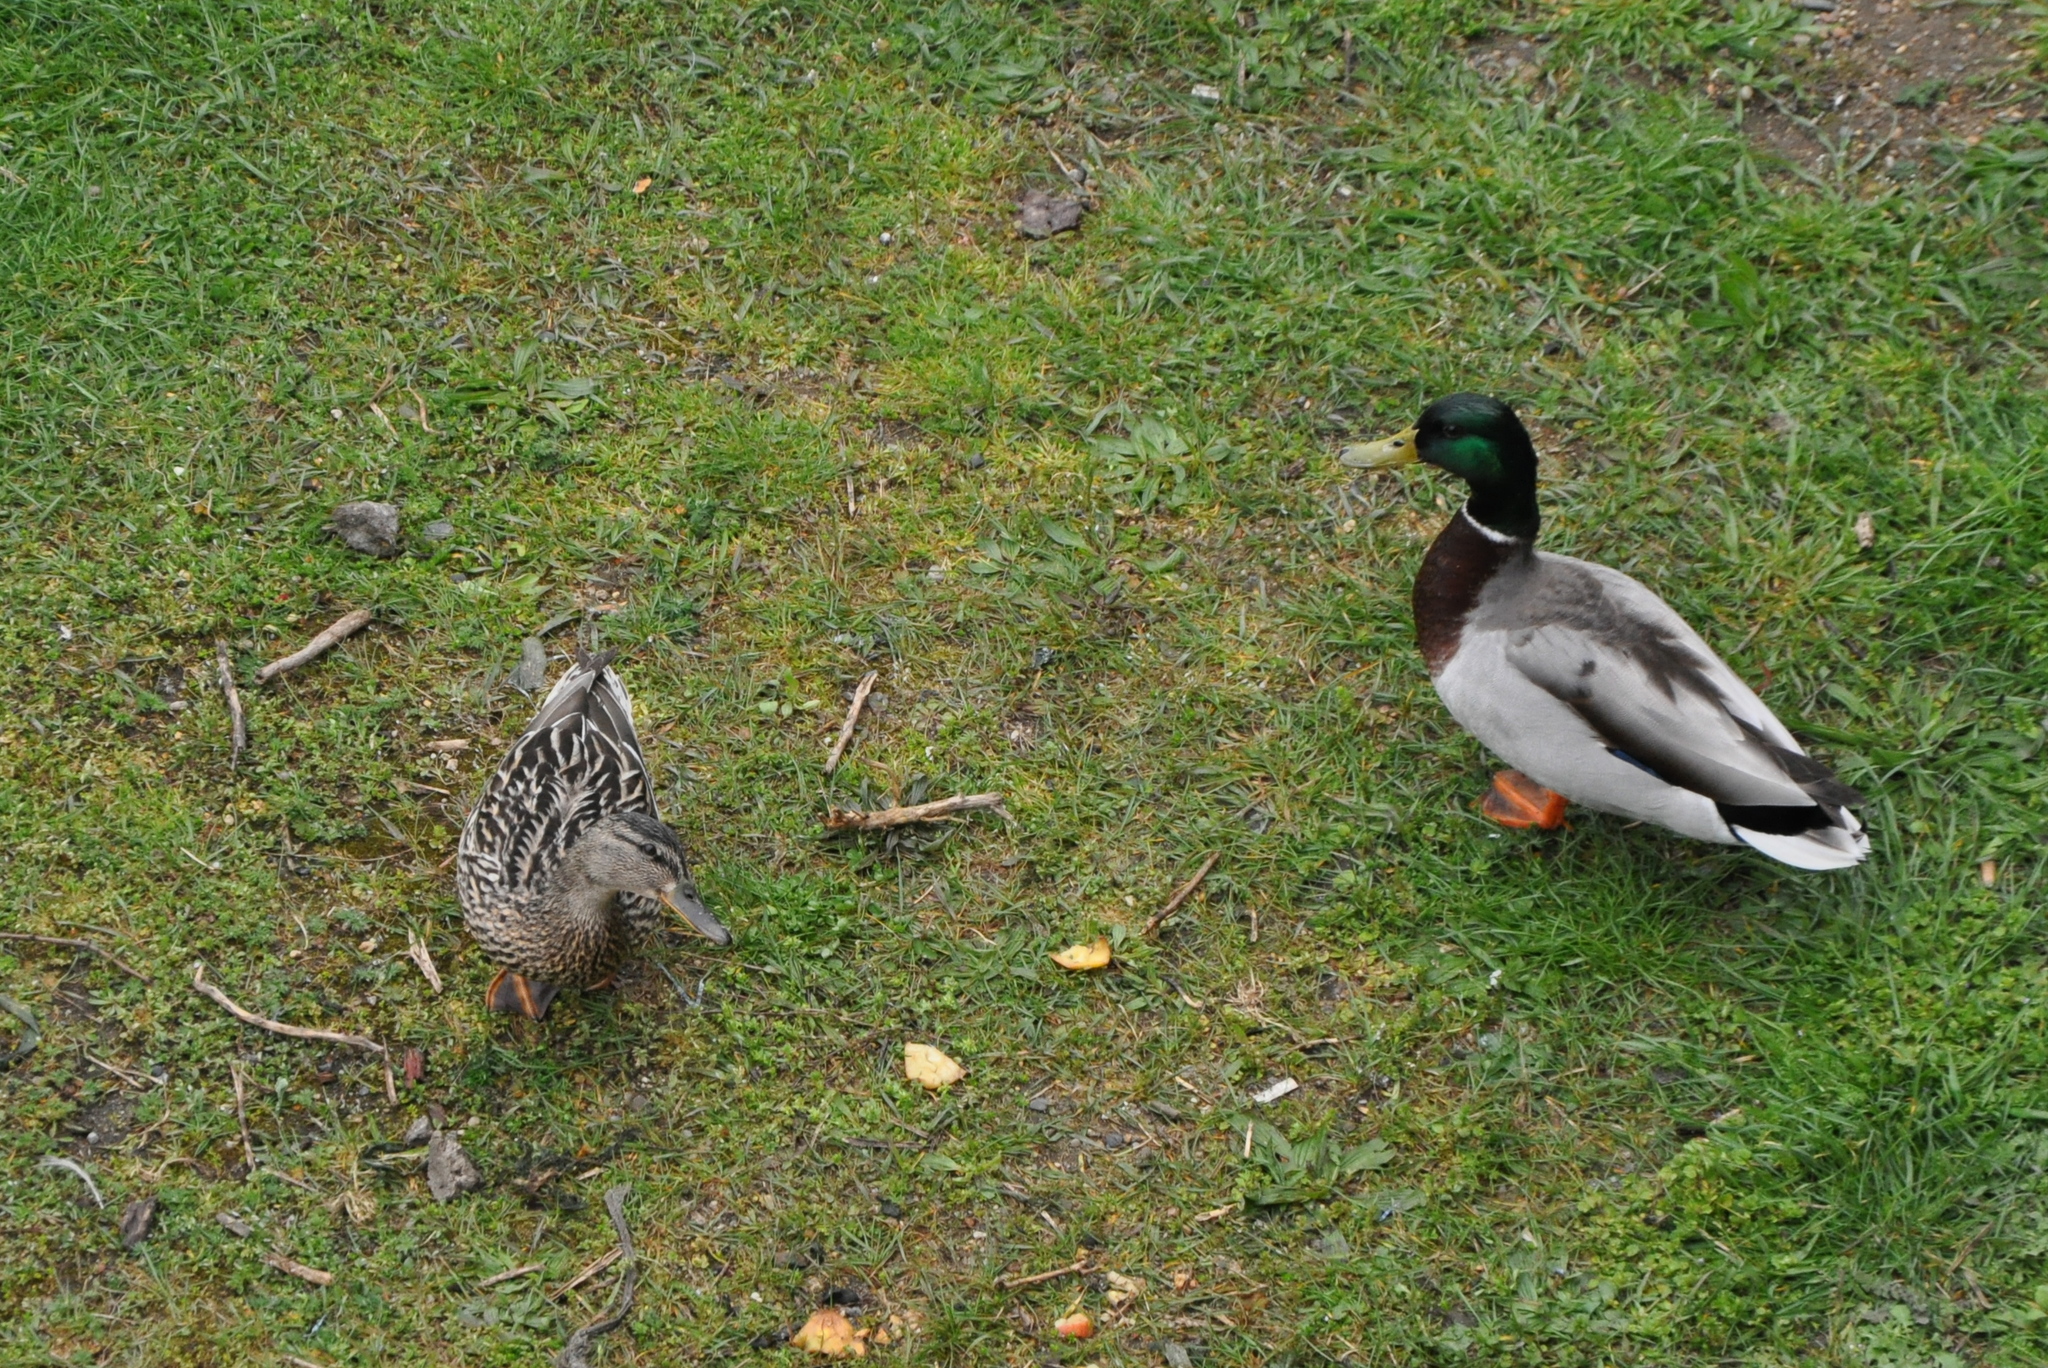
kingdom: Animalia
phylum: Chordata
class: Aves
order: Anseriformes
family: Anatidae
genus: Anas
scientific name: Anas platyrhynchos
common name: Mallard
